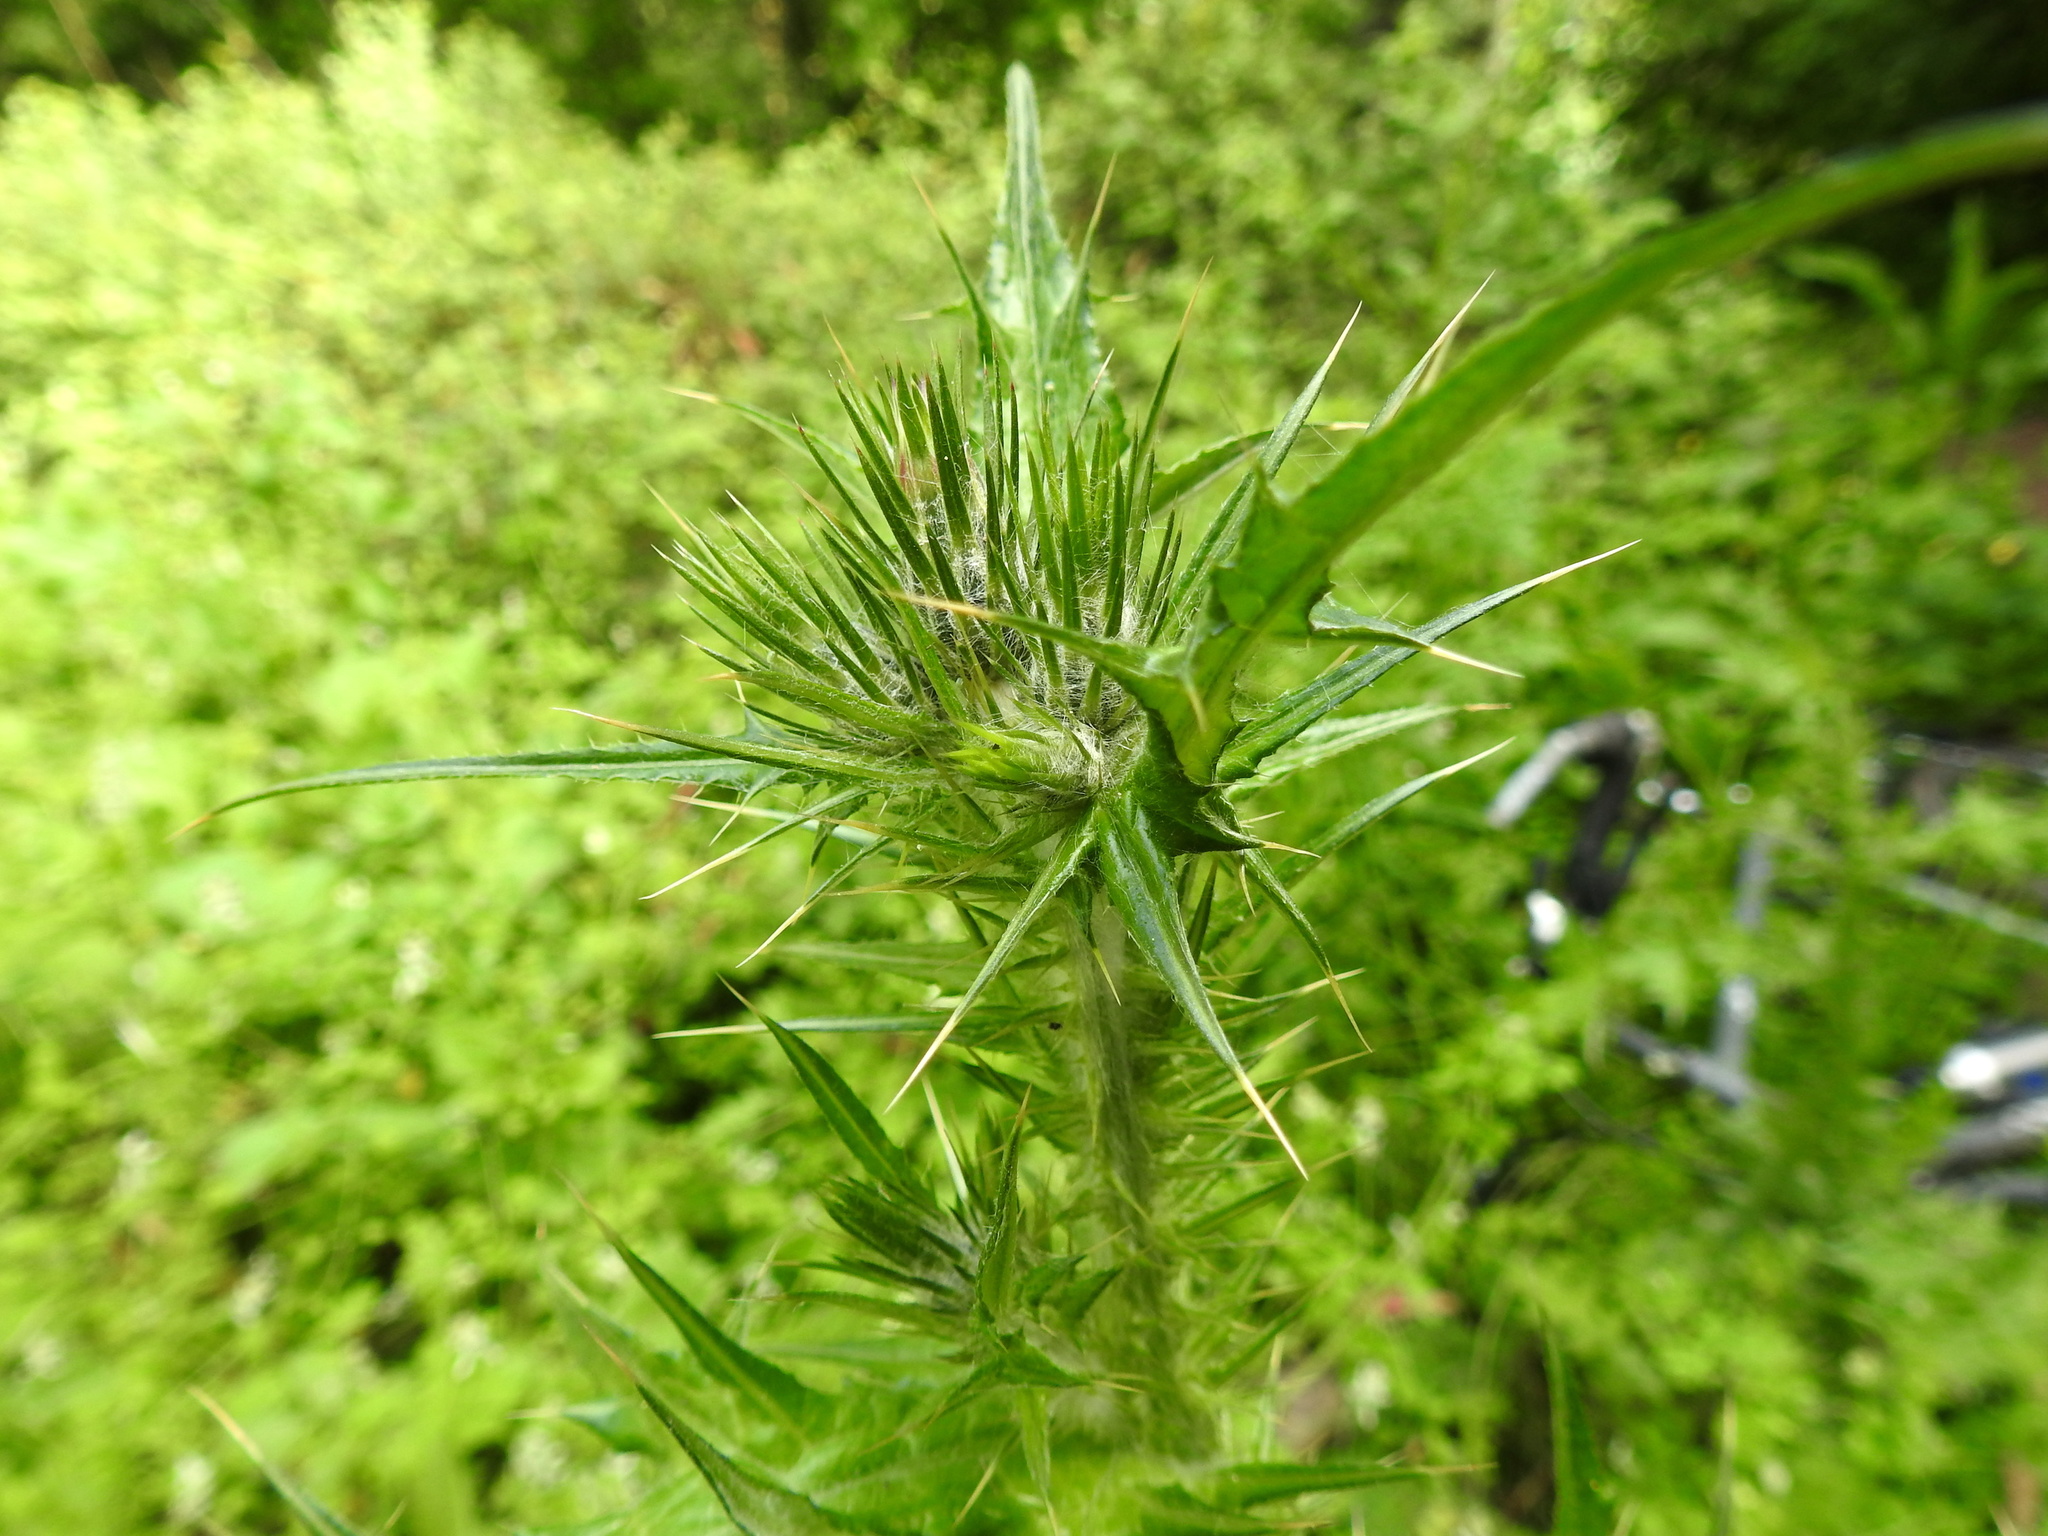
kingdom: Plantae
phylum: Tracheophyta
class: Magnoliopsida
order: Asterales
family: Asteraceae
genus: Carduus
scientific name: Carduus pycnocephalus
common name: Plymouth thistle
